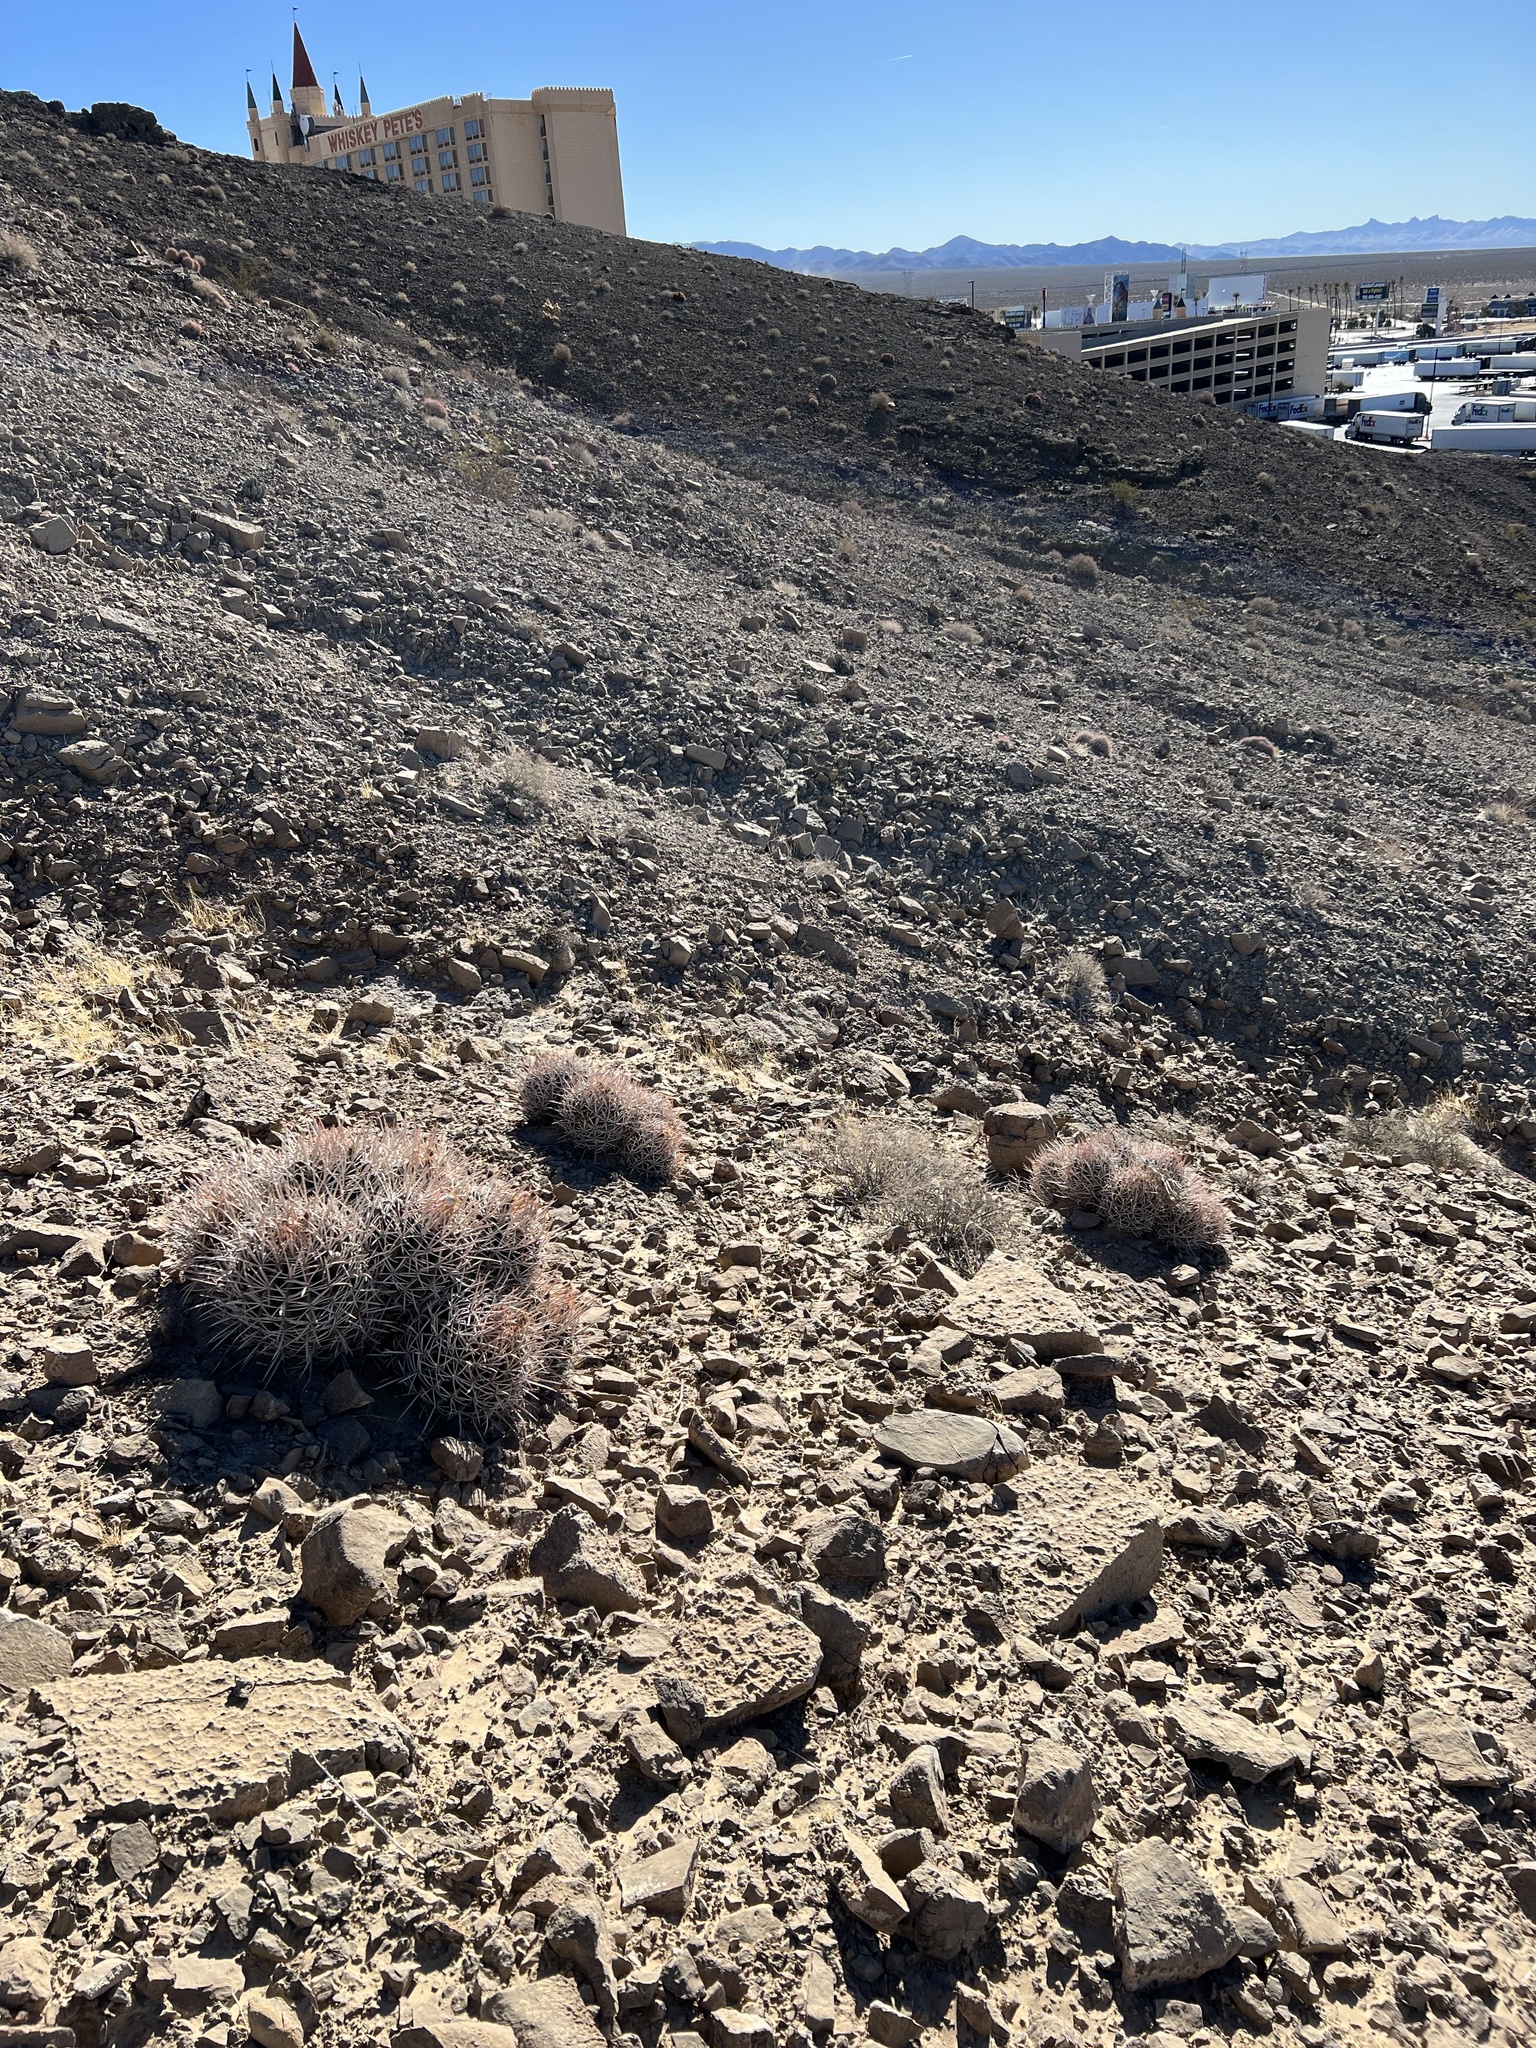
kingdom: Plantae
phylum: Tracheophyta
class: Magnoliopsida
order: Caryophyllales
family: Cactaceae
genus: Echinocactus
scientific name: Echinocactus polycephalus
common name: Cottontop cactus
